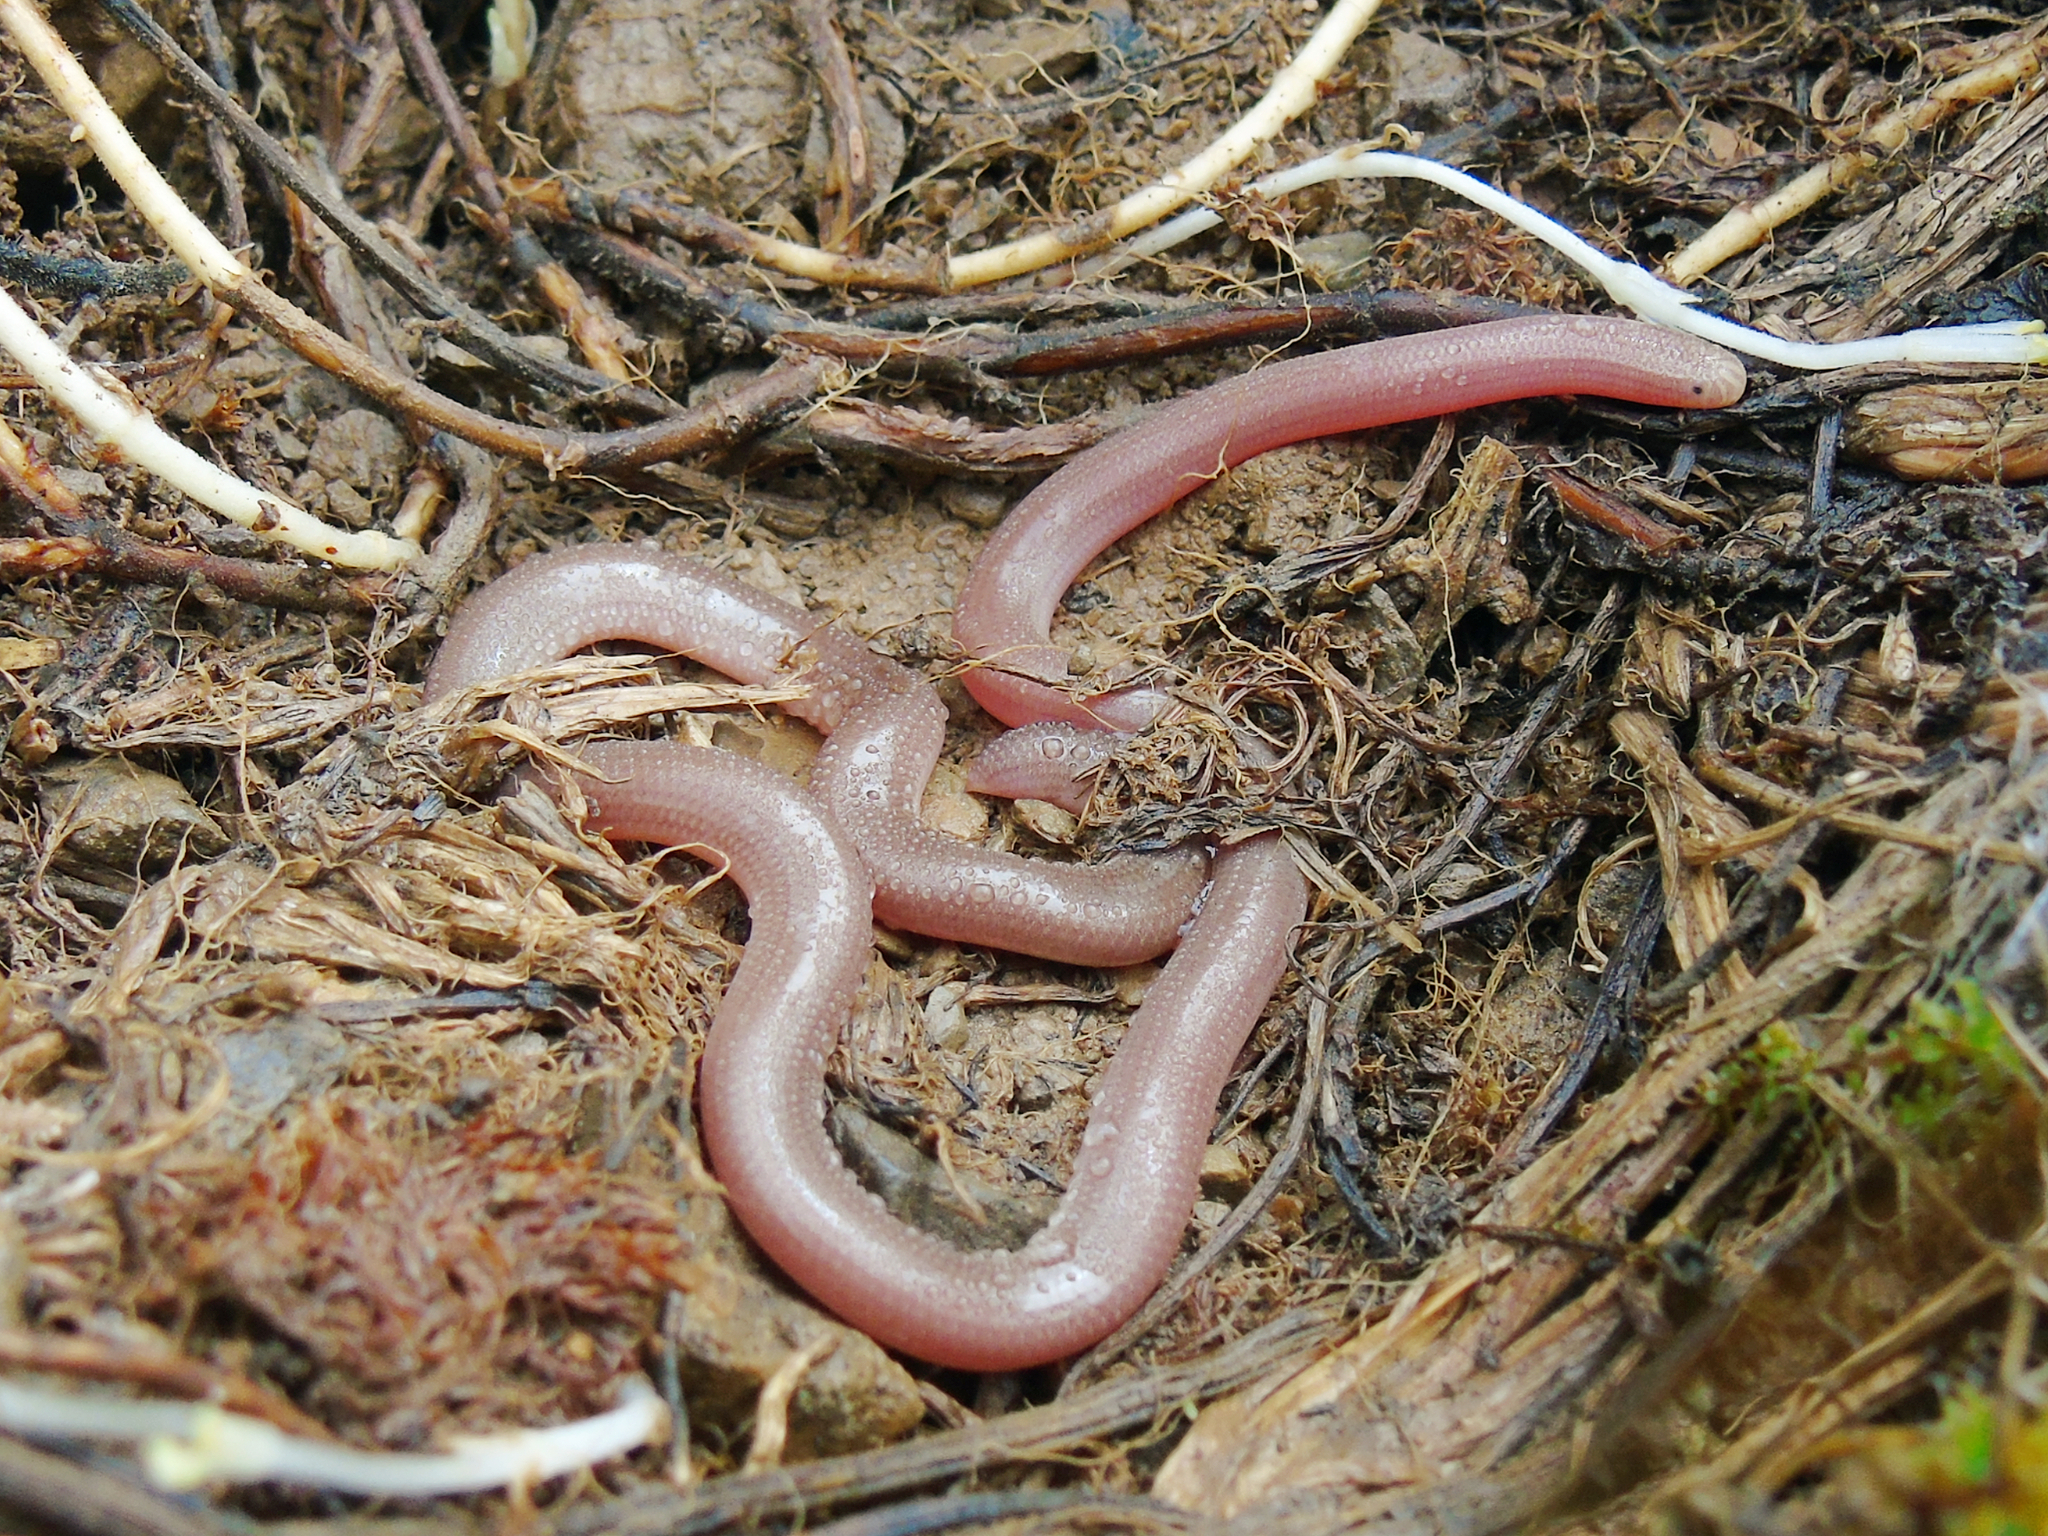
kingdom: Animalia
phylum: Chordata
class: Squamata
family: Typhlopidae
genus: Xerotyphlops
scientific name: Xerotyphlops vermicularis
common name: Eurasian blind snake
